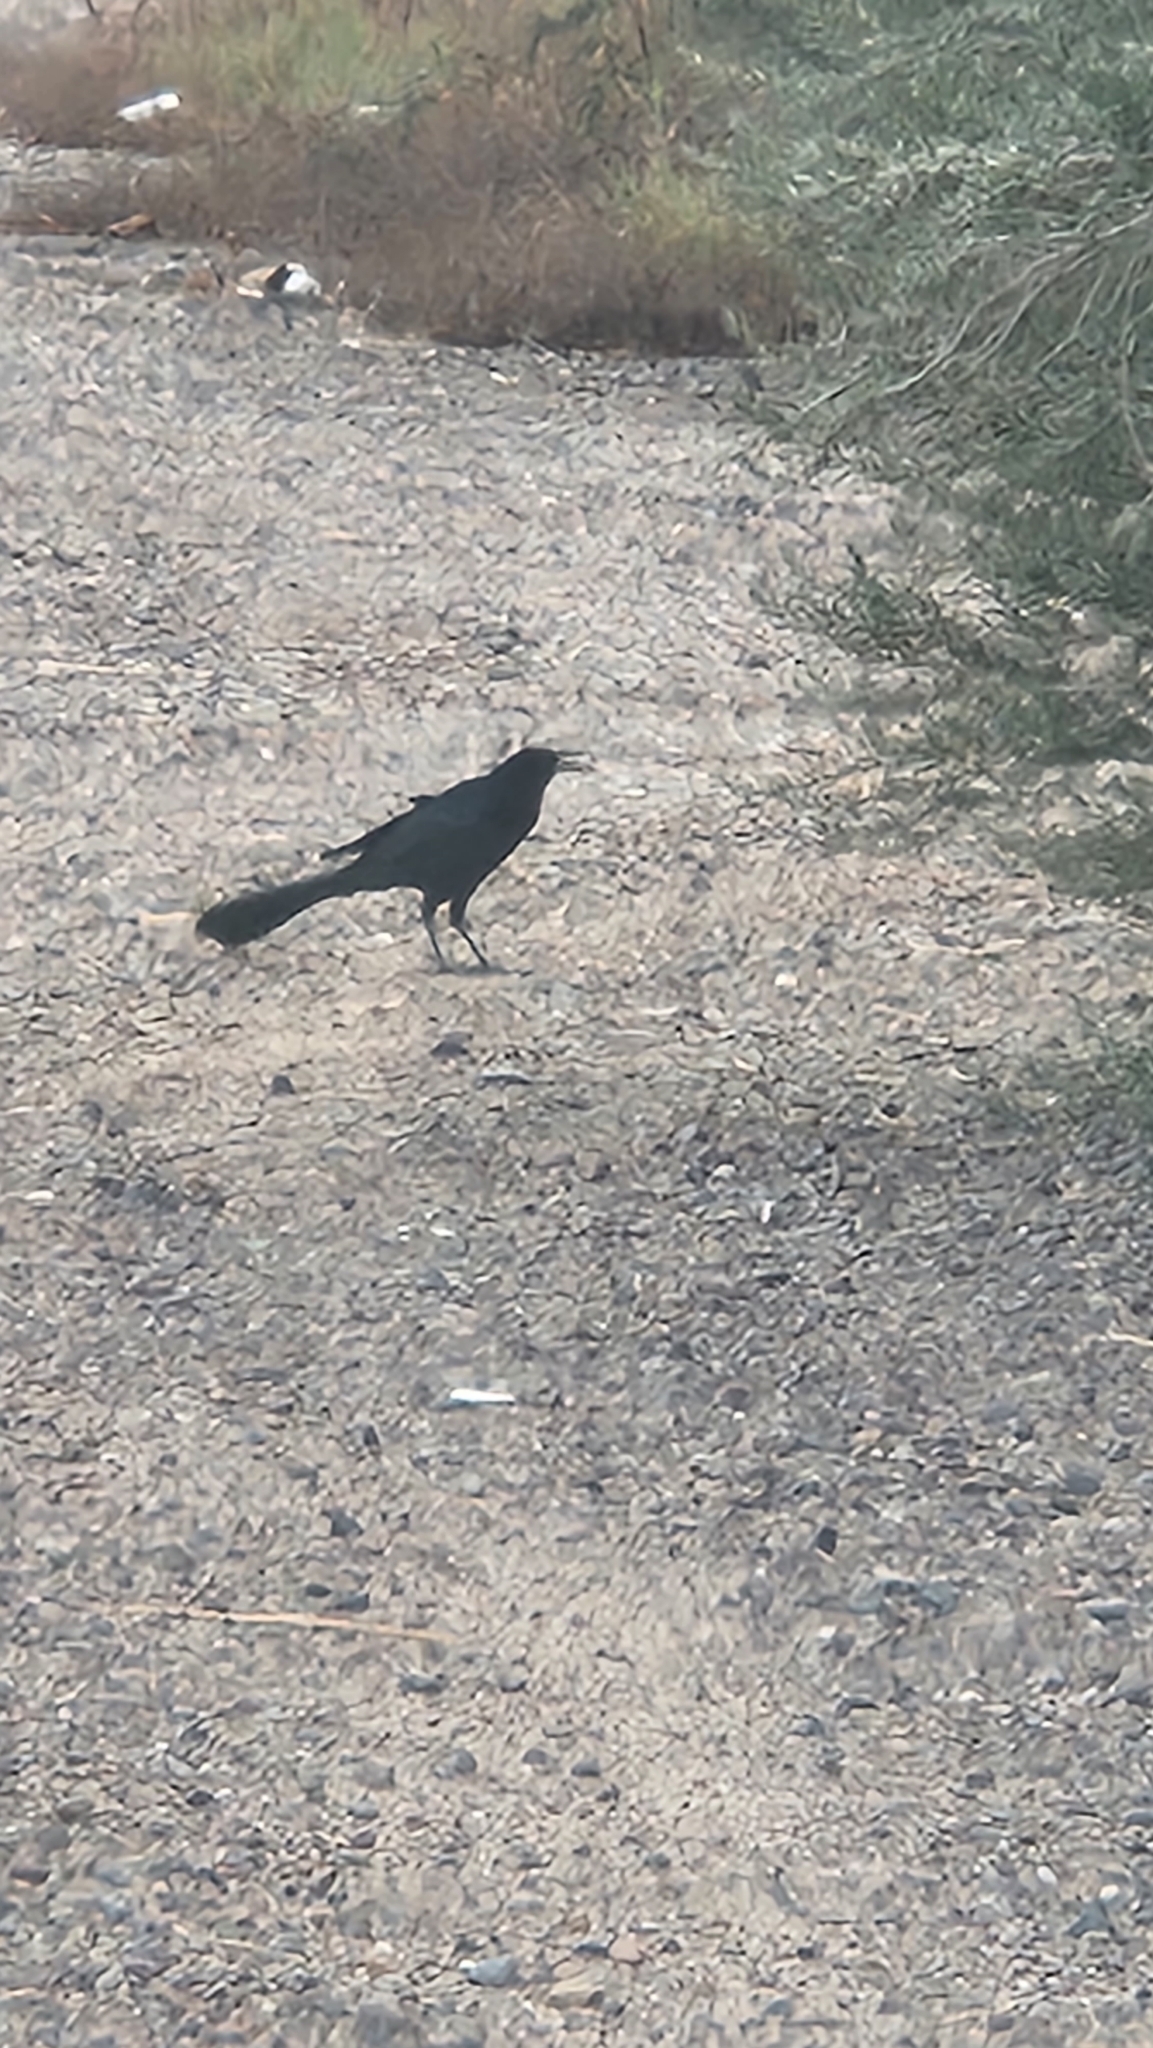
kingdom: Animalia
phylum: Chordata
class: Aves
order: Passeriformes
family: Icteridae
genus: Quiscalus
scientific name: Quiscalus mexicanus
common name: Great-tailed grackle
